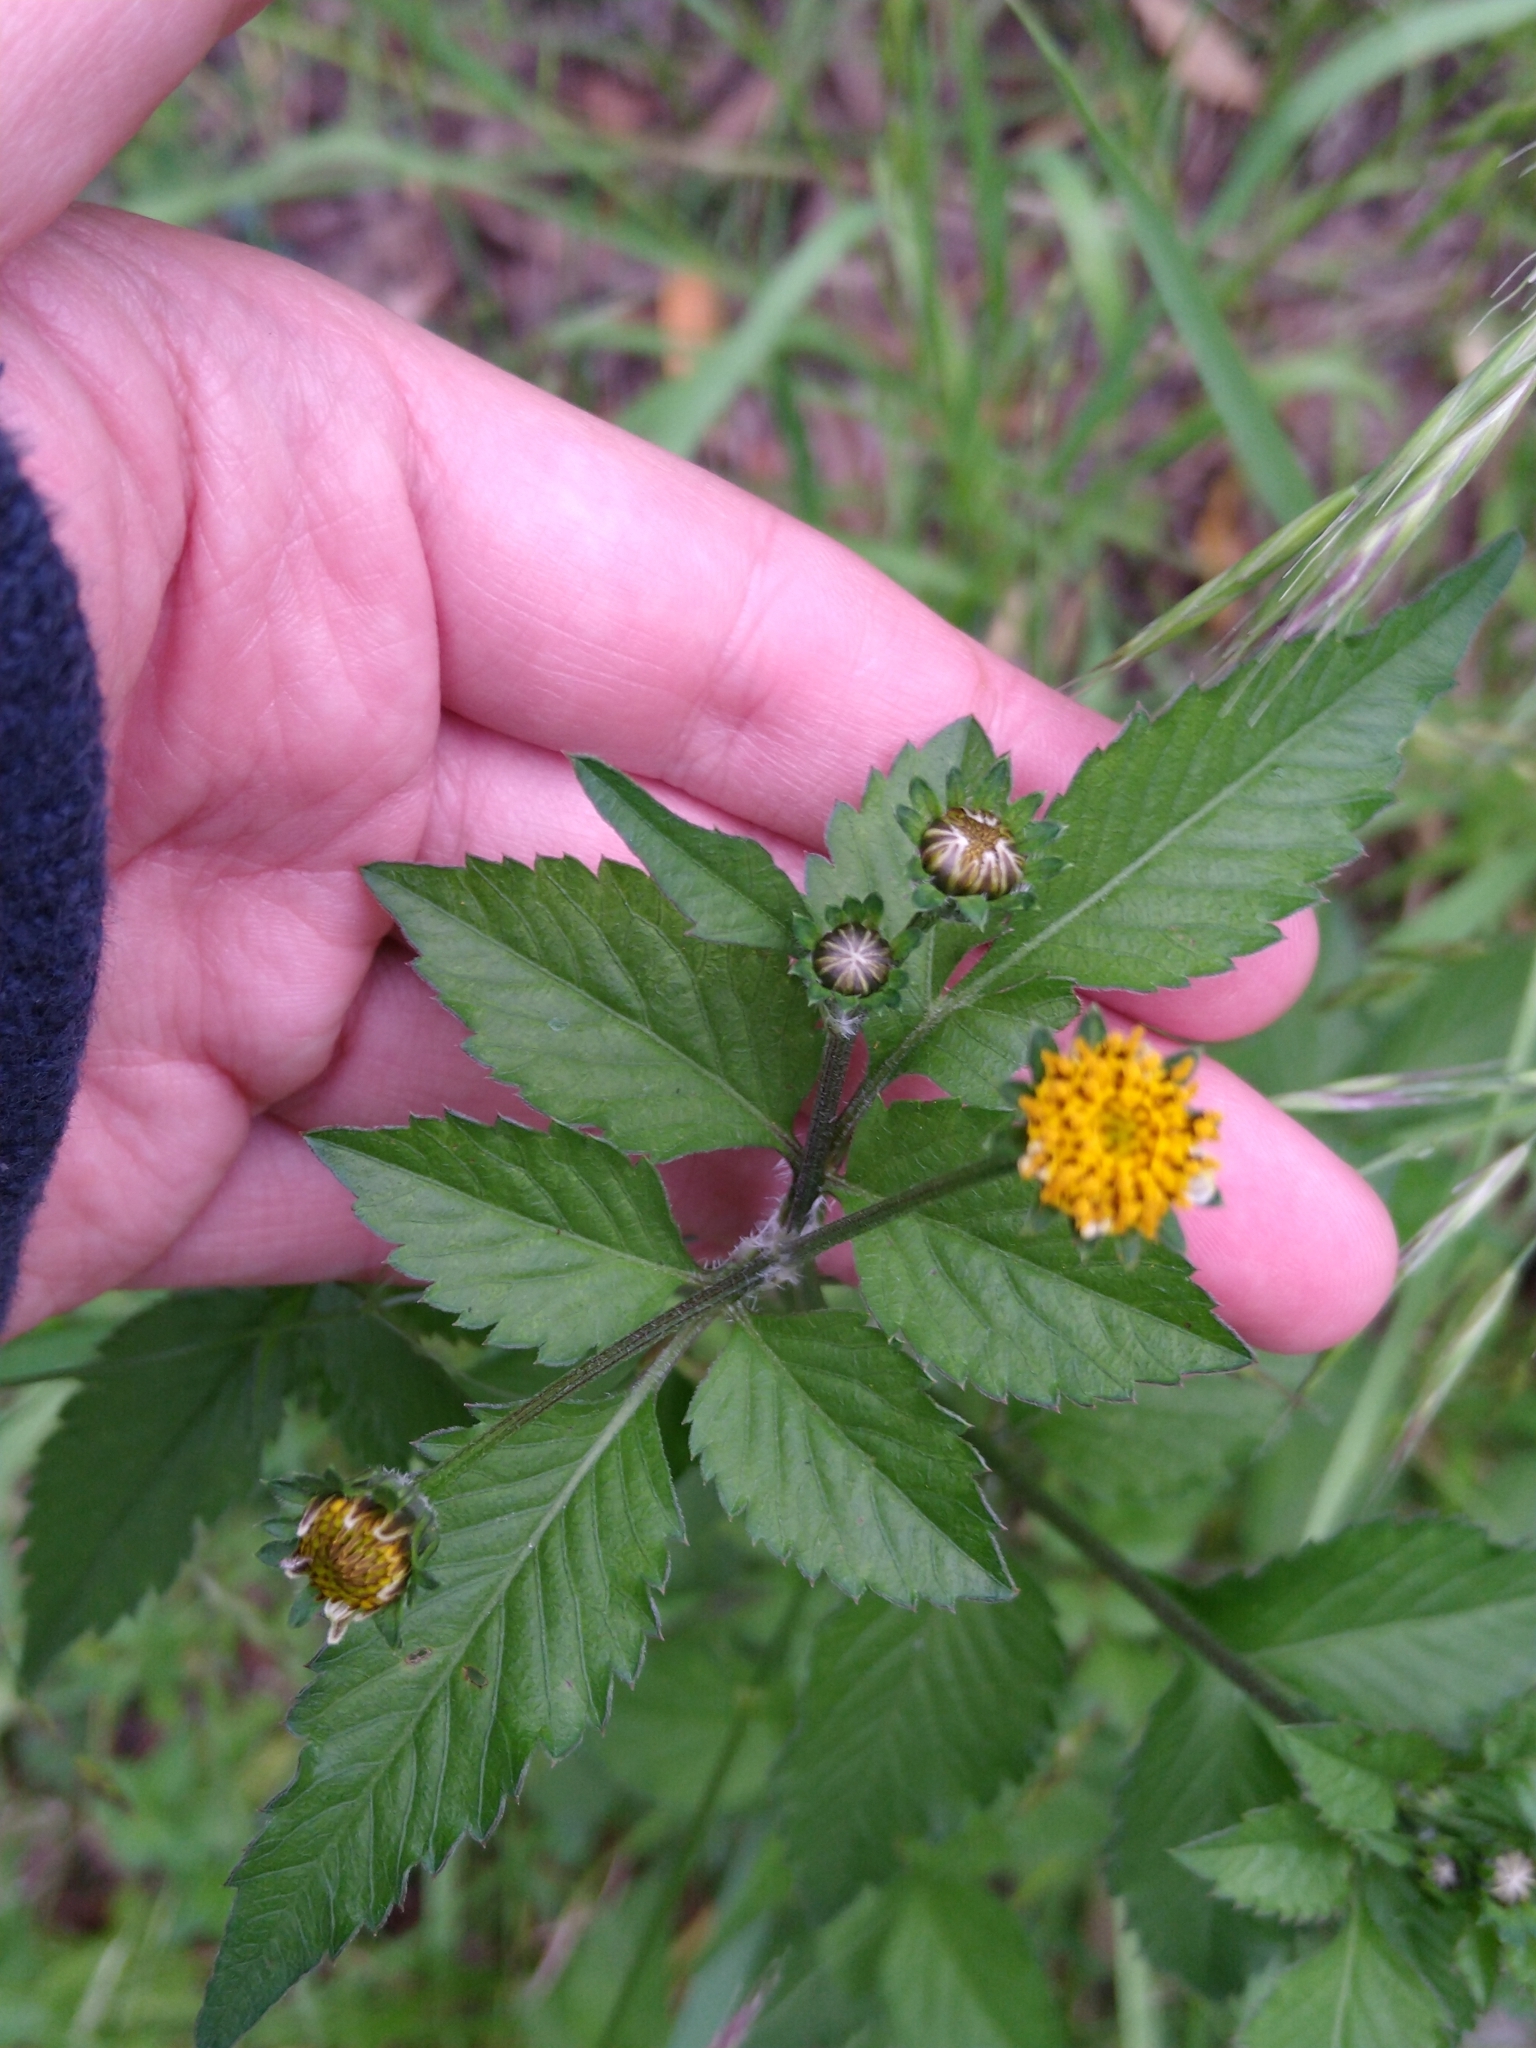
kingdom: Plantae
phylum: Tracheophyta
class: Magnoliopsida
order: Asterales
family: Asteraceae
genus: Bidens
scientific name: Bidens pilosa
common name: Black-jack
